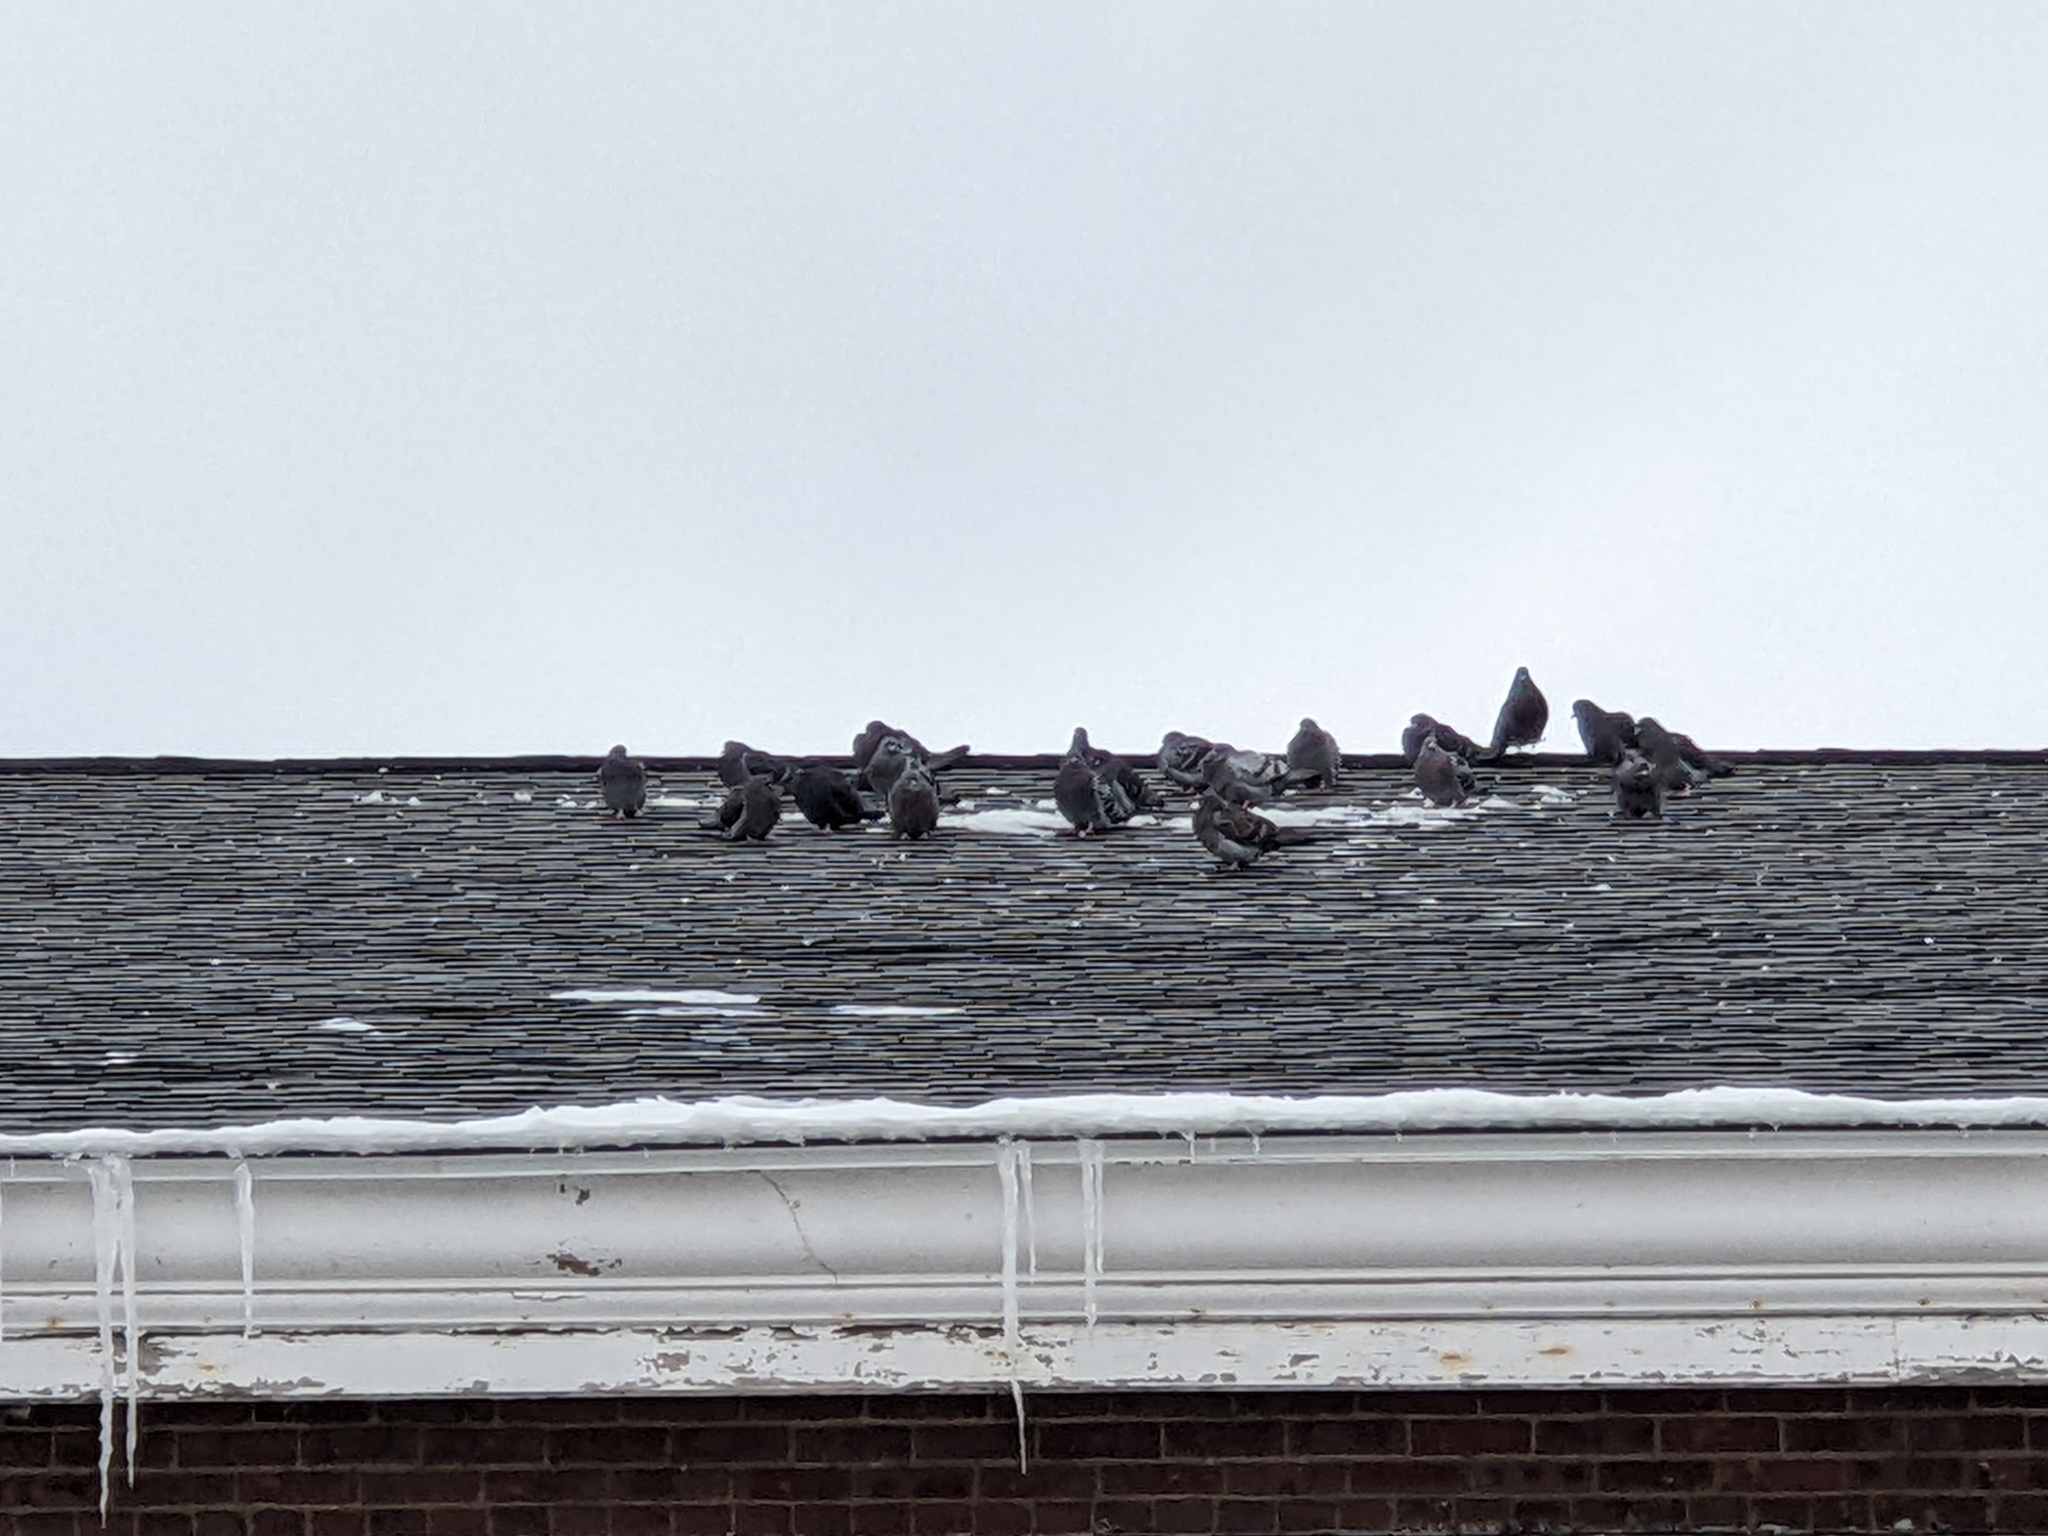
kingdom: Animalia
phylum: Chordata
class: Aves
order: Columbiformes
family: Columbidae
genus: Columba
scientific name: Columba livia
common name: Rock pigeon
